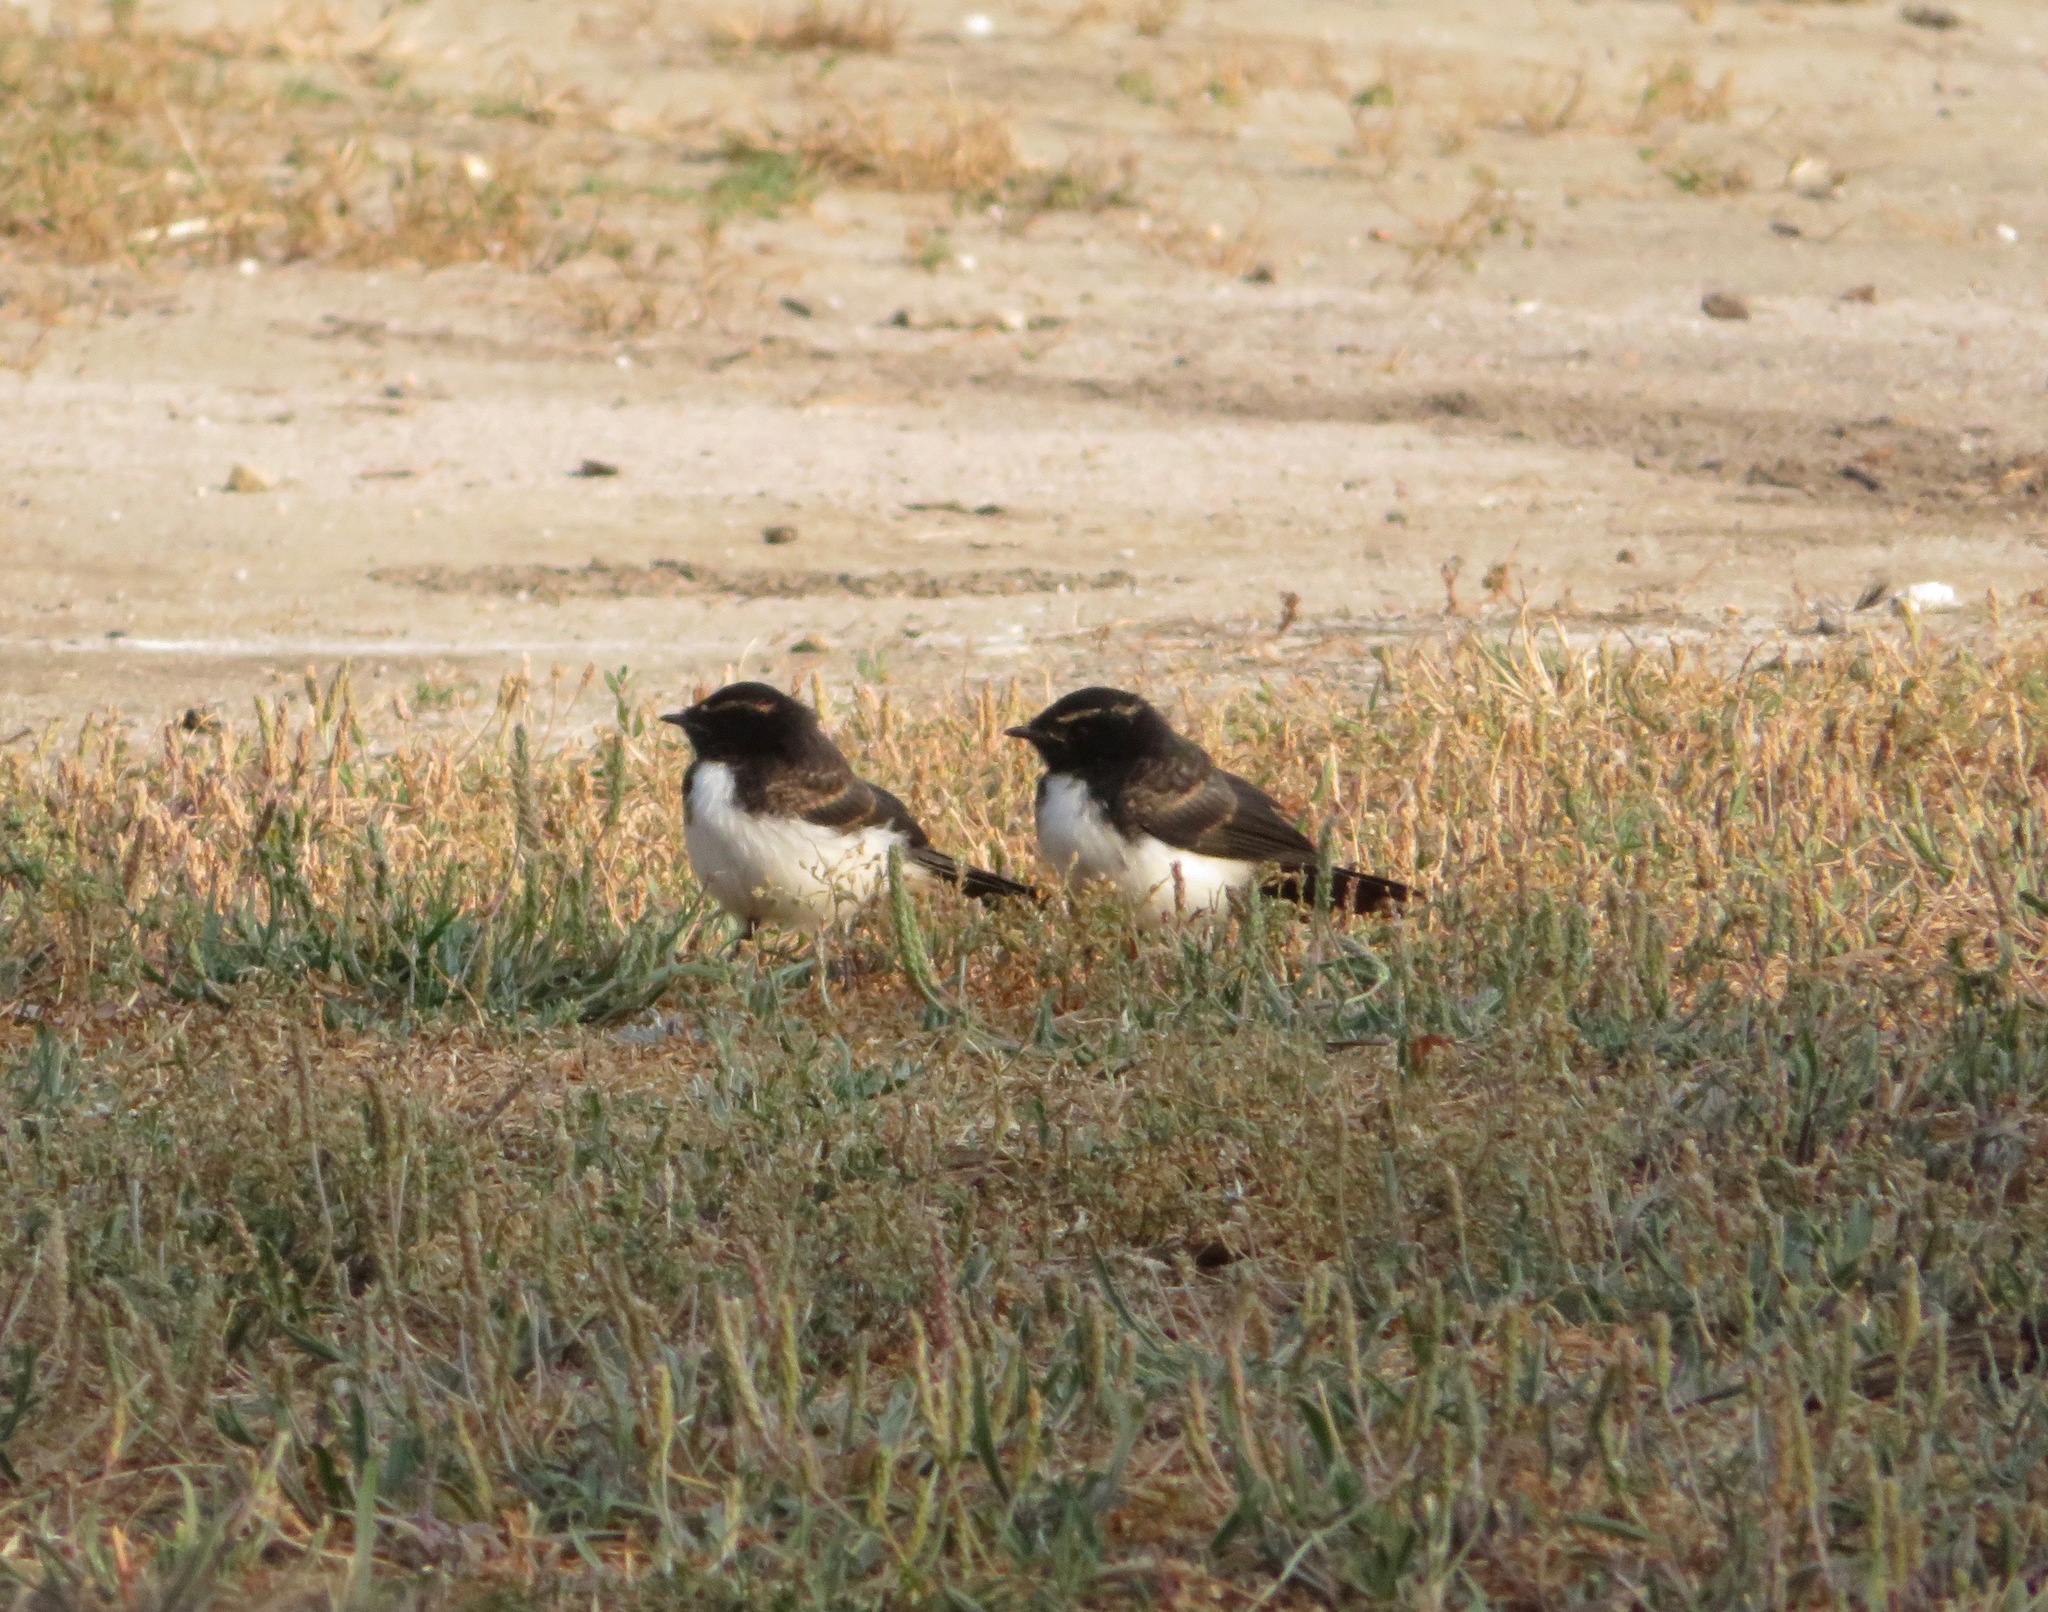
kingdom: Animalia
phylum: Chordata
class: Aves
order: Passeriformes
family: Rhipiduridae
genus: Rhipidura
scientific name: Rhipidura leucophrys
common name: Willie wagtail
